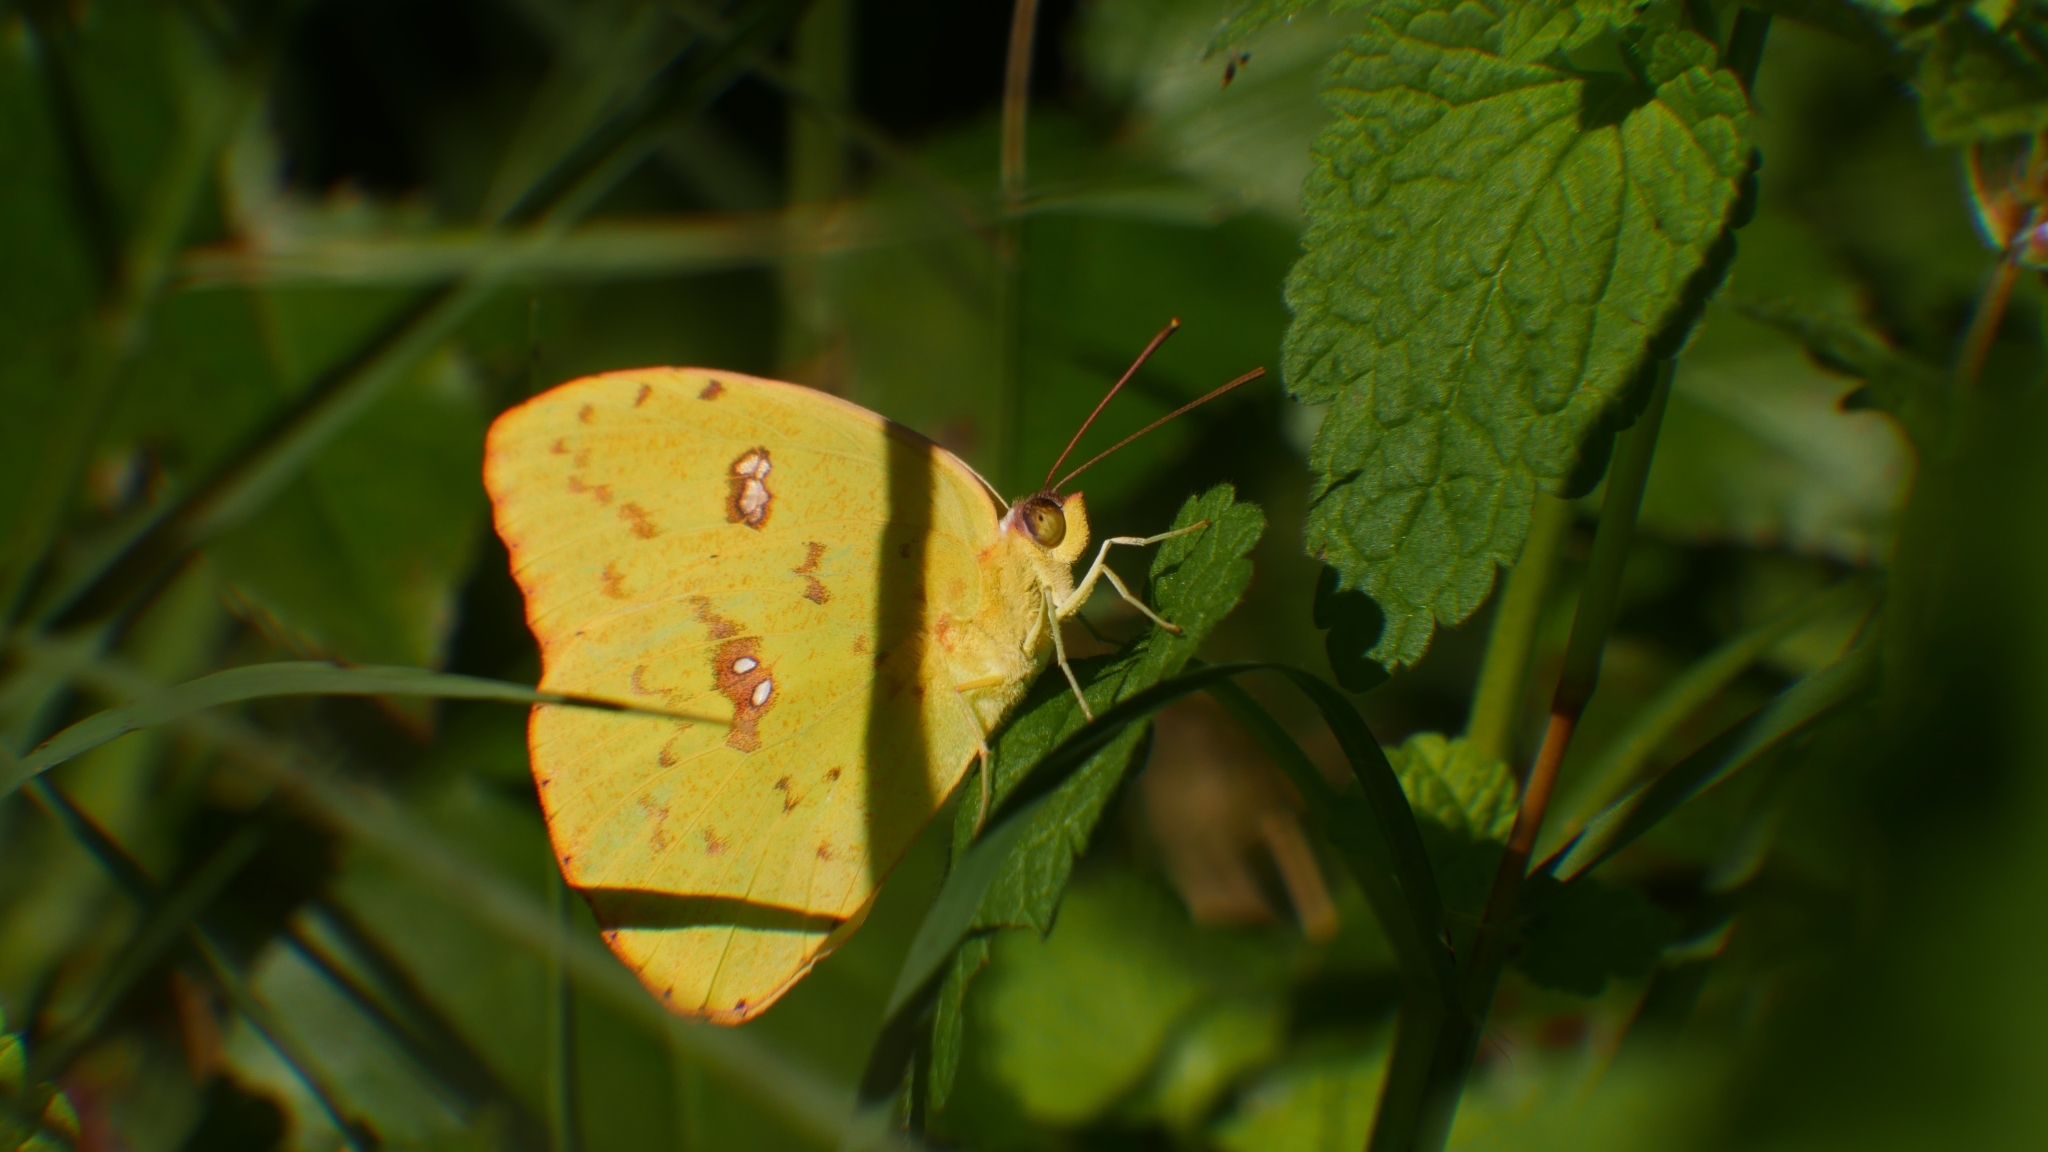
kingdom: Animalia
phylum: Arthropoda
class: Insecta
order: Lepidoptera
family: Pieridae
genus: Phoebis
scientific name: Phoebis sennae
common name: Cloudless sulphur
